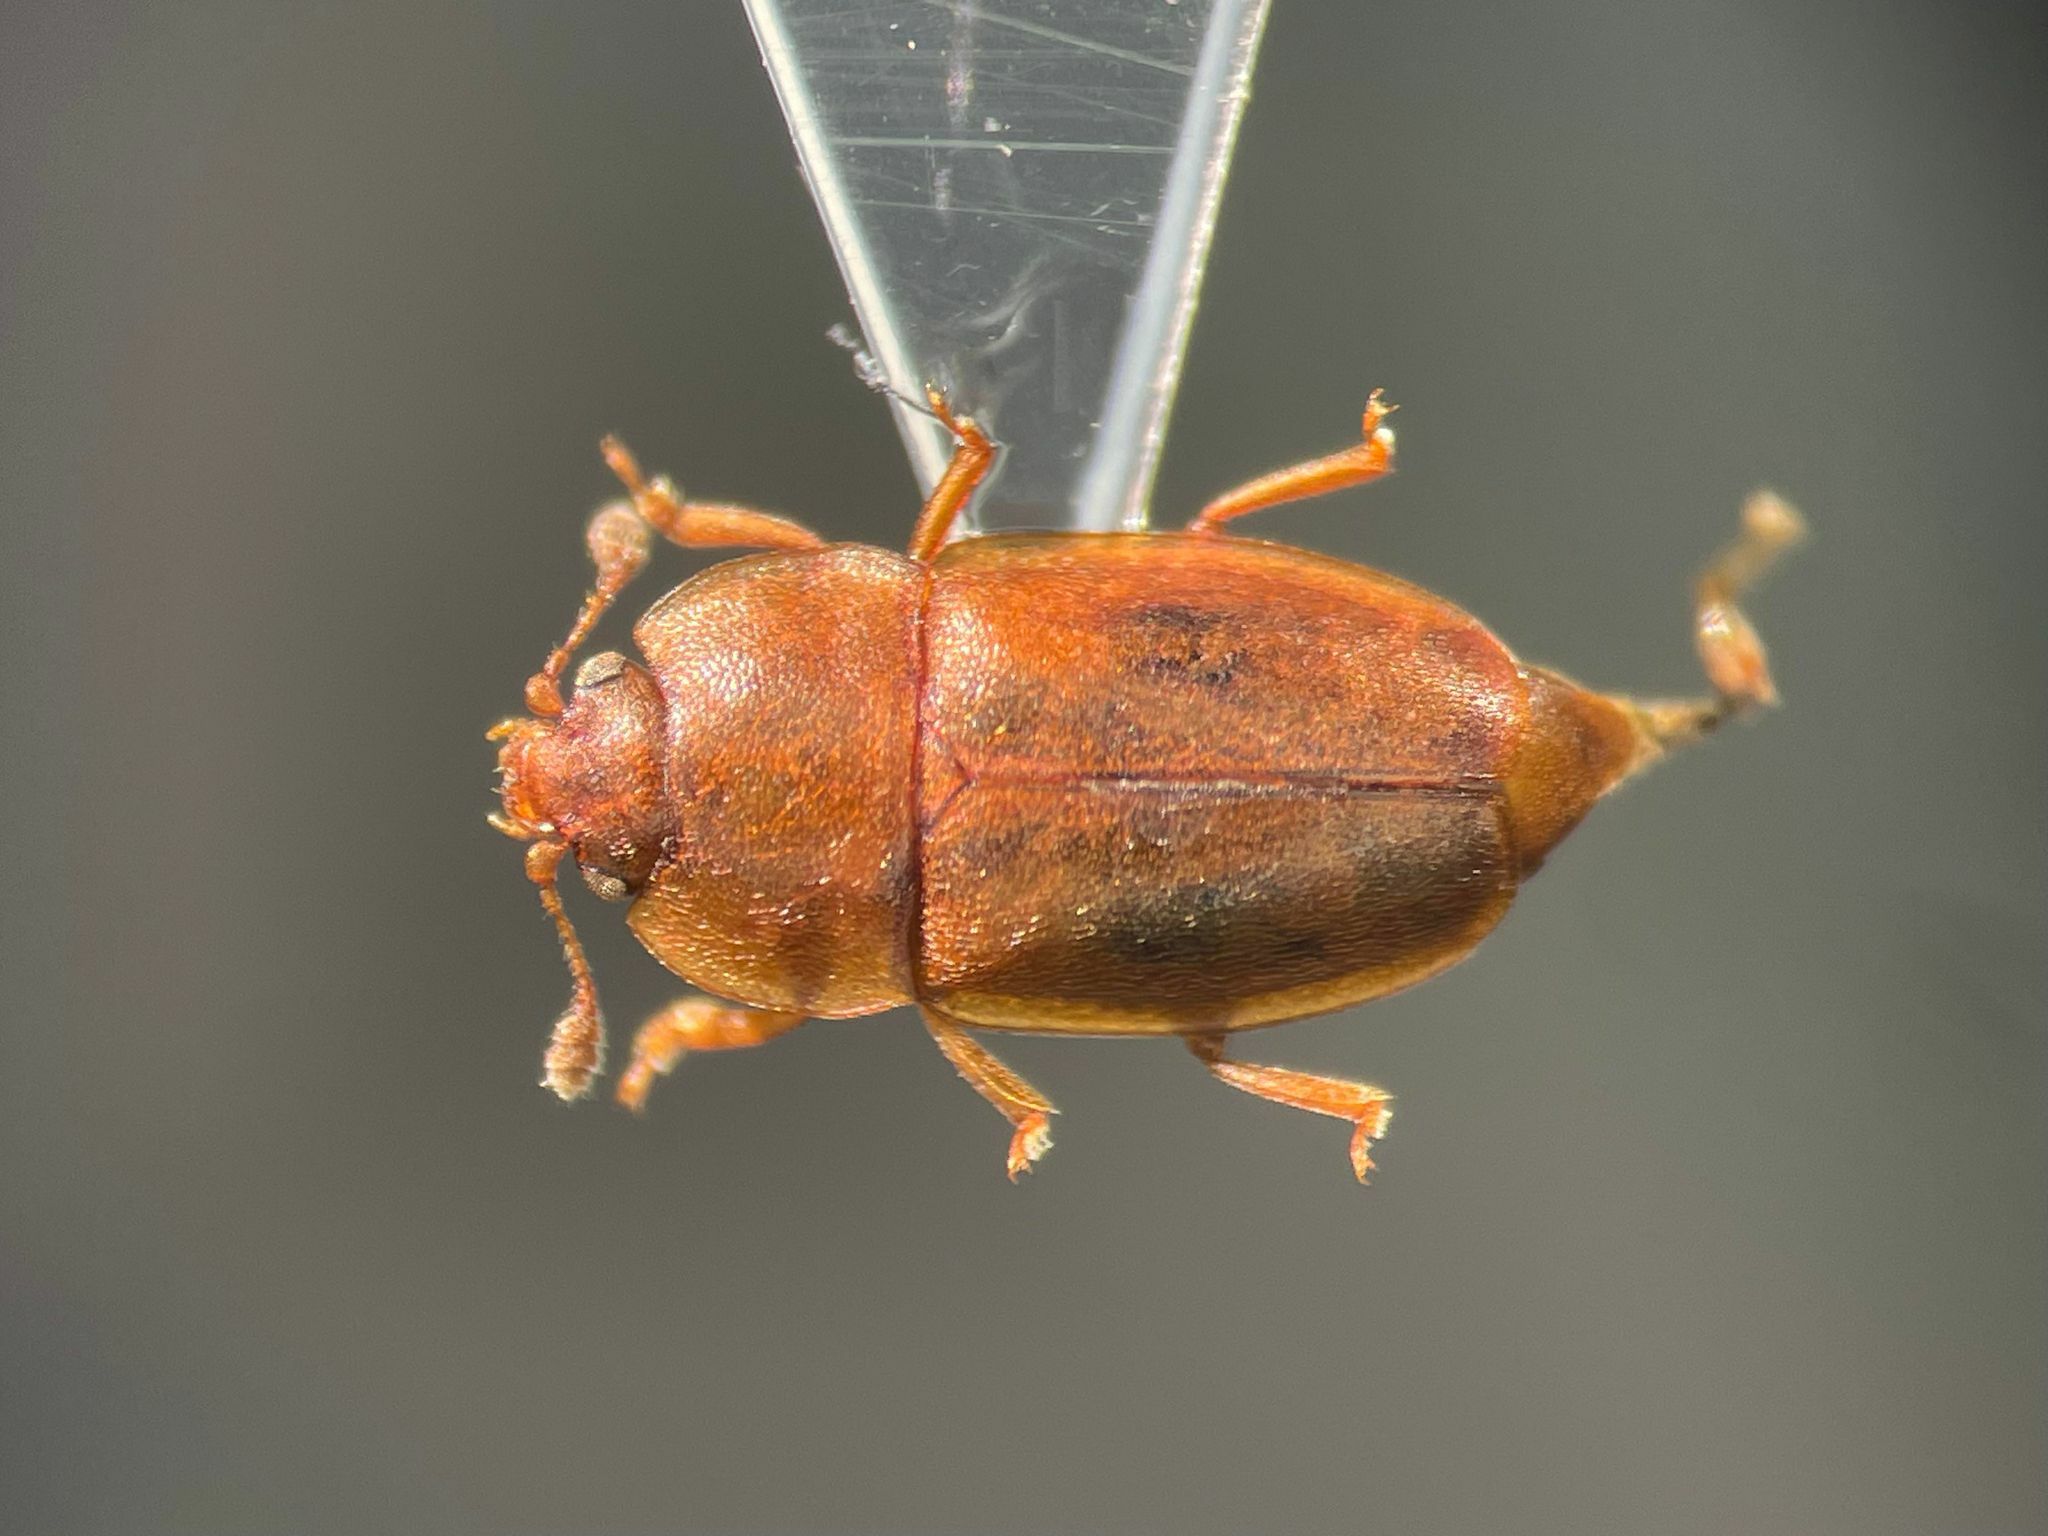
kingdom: Animalia
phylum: Arthropoda
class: Insecta
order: Coleoptera
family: Nitidulidae
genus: Epuraea
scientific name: Epuraea avara
